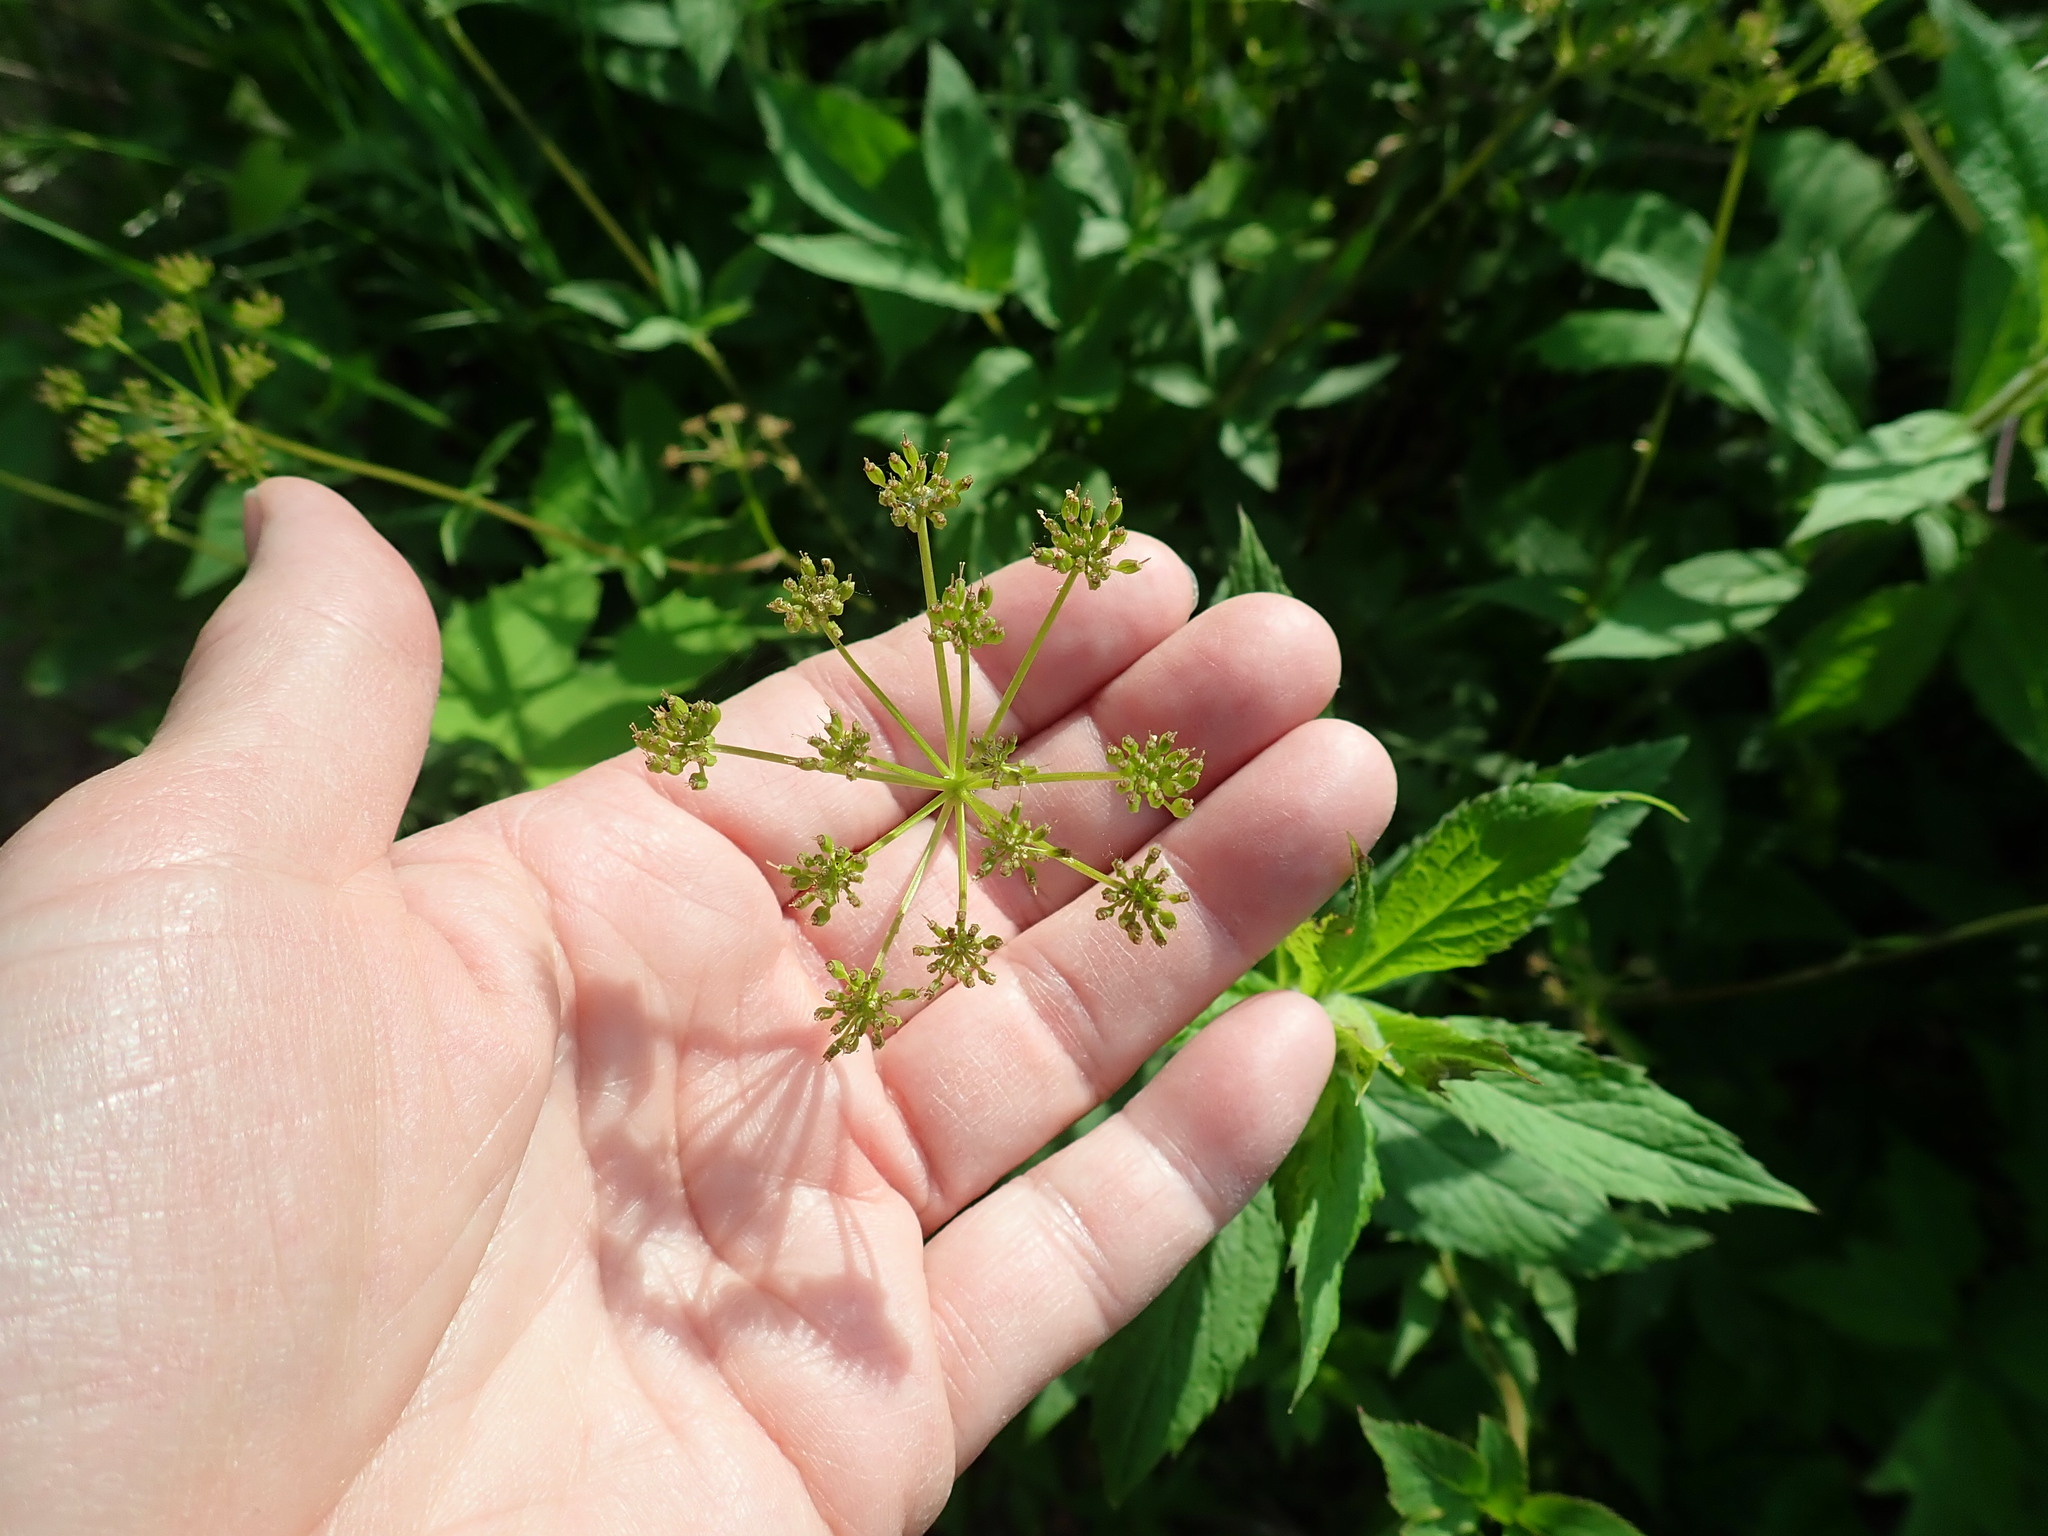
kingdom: Plantae
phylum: Tracheophyta
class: Magnoliopsida
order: Apiales
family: Apiaceae
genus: Zizia
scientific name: Zizia aurea
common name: Golden alexanders
